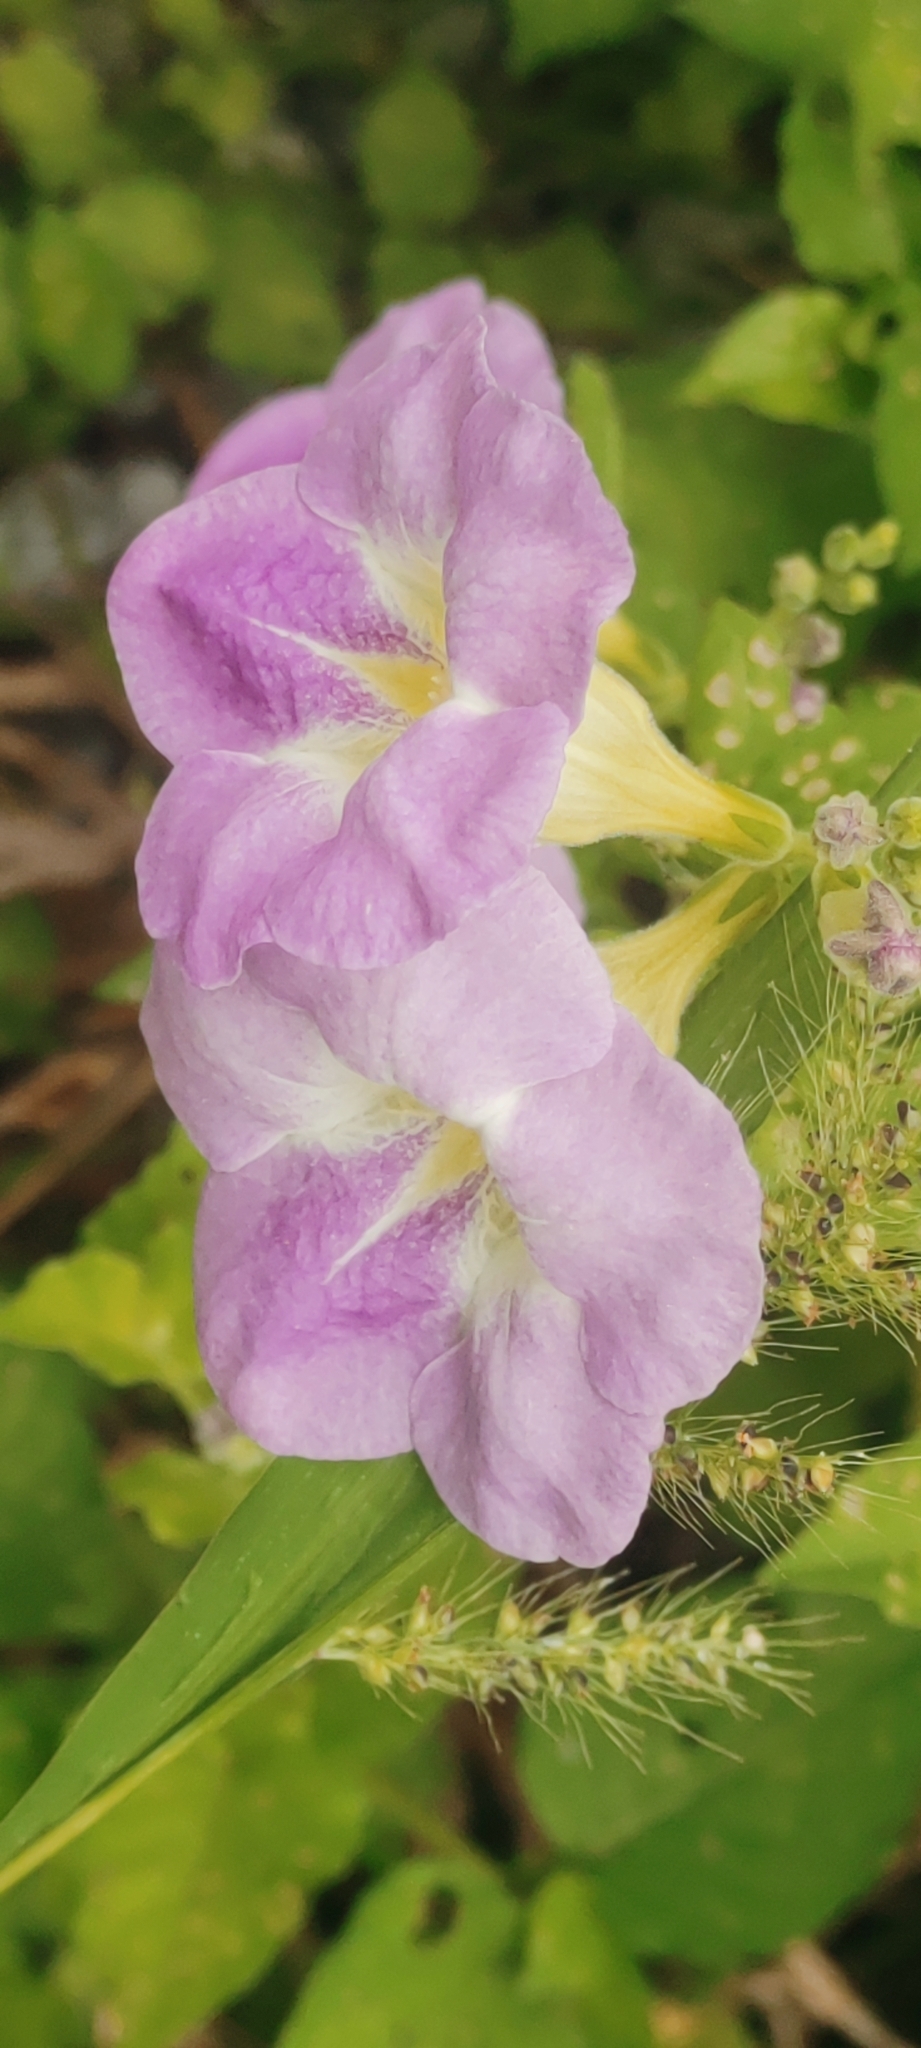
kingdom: Plantae
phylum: Tracheophyta
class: Magnoliopsida
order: Lamiales
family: Acanthaceae
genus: Asystasia
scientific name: Asystasia gangetica
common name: Chinese violet
